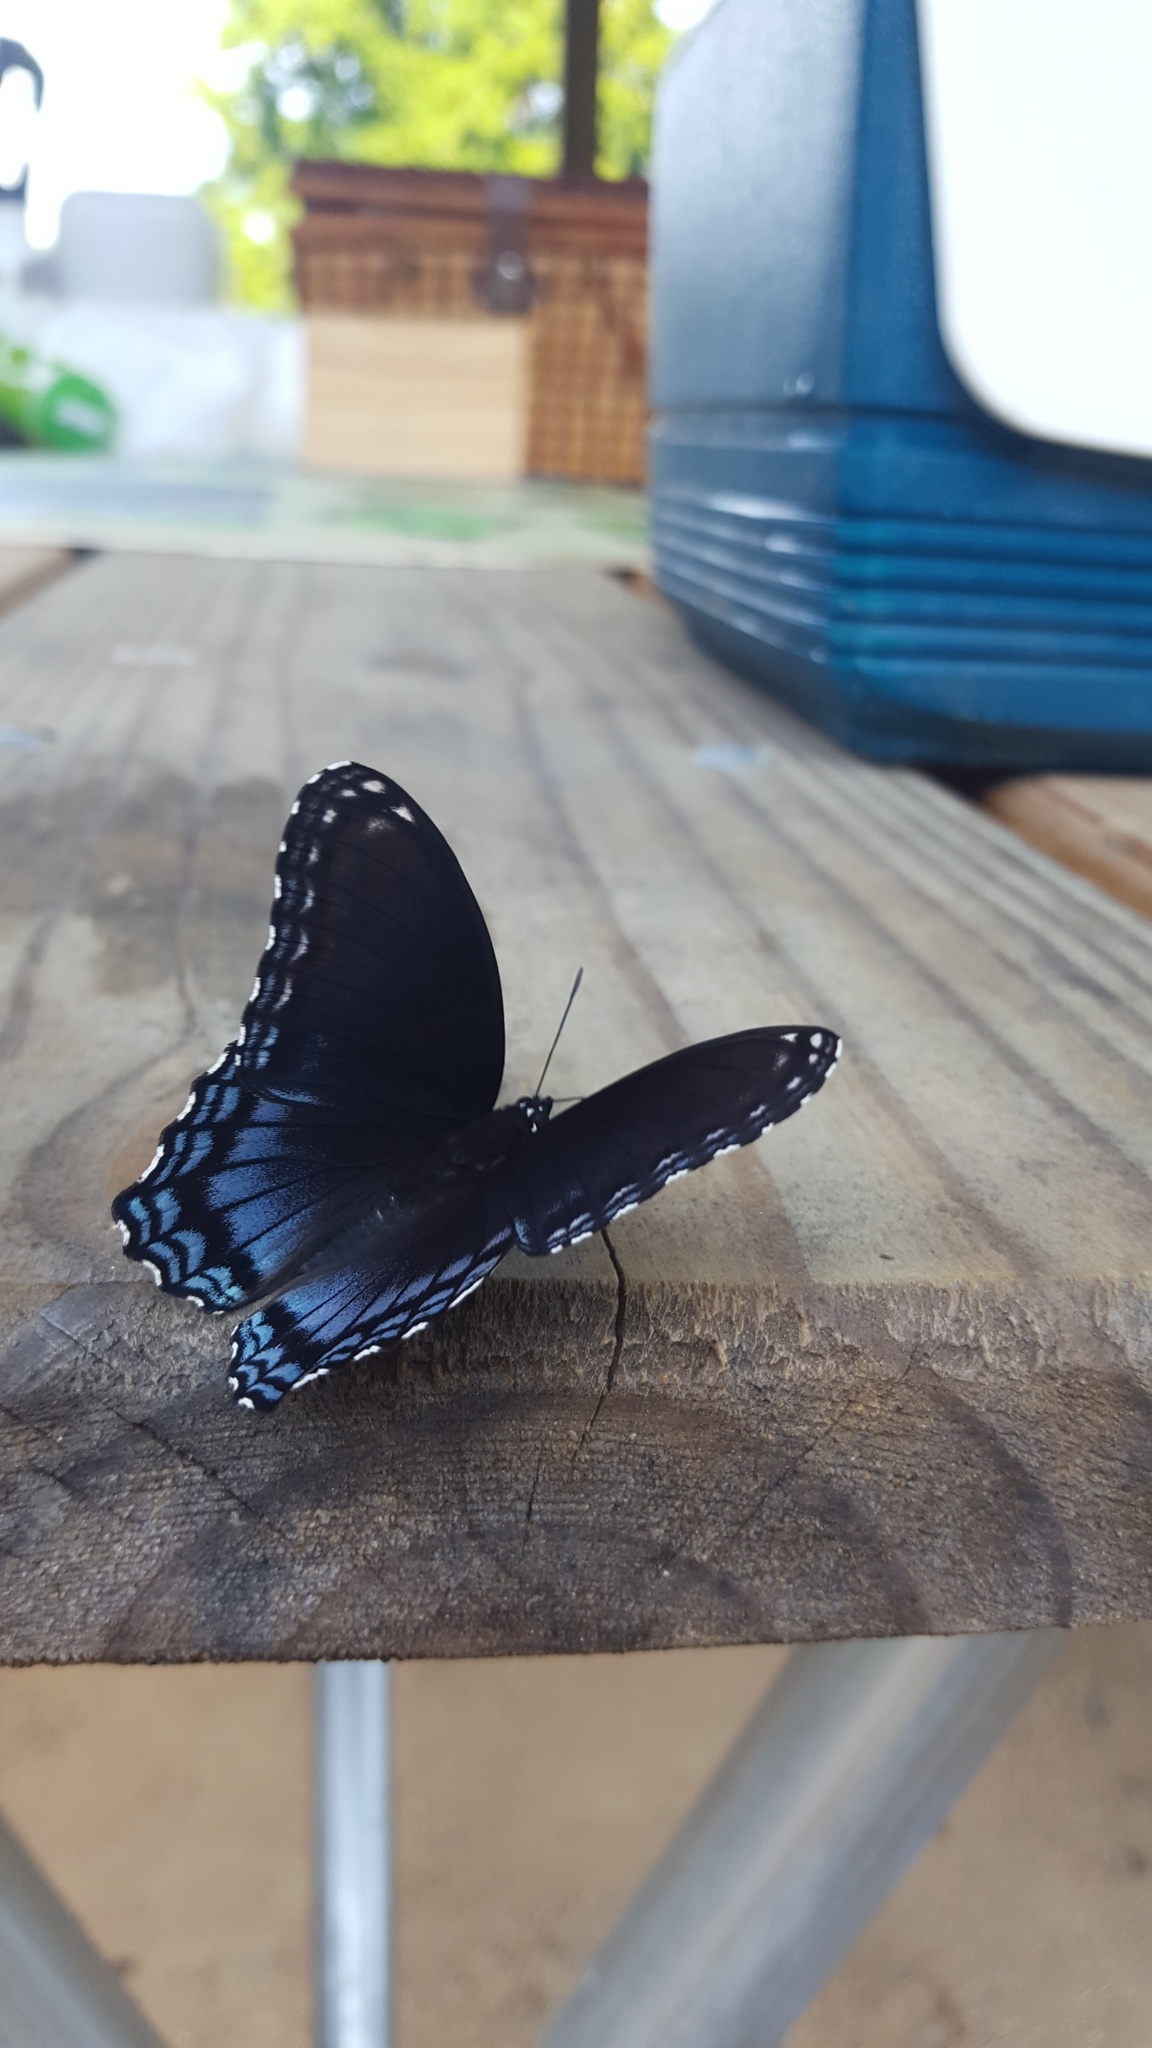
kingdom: Animalia
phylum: Arthropoda
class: Insecta
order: Lepidoptera
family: Nymphalidae
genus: Limenitis
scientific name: Limenitis astyanax
